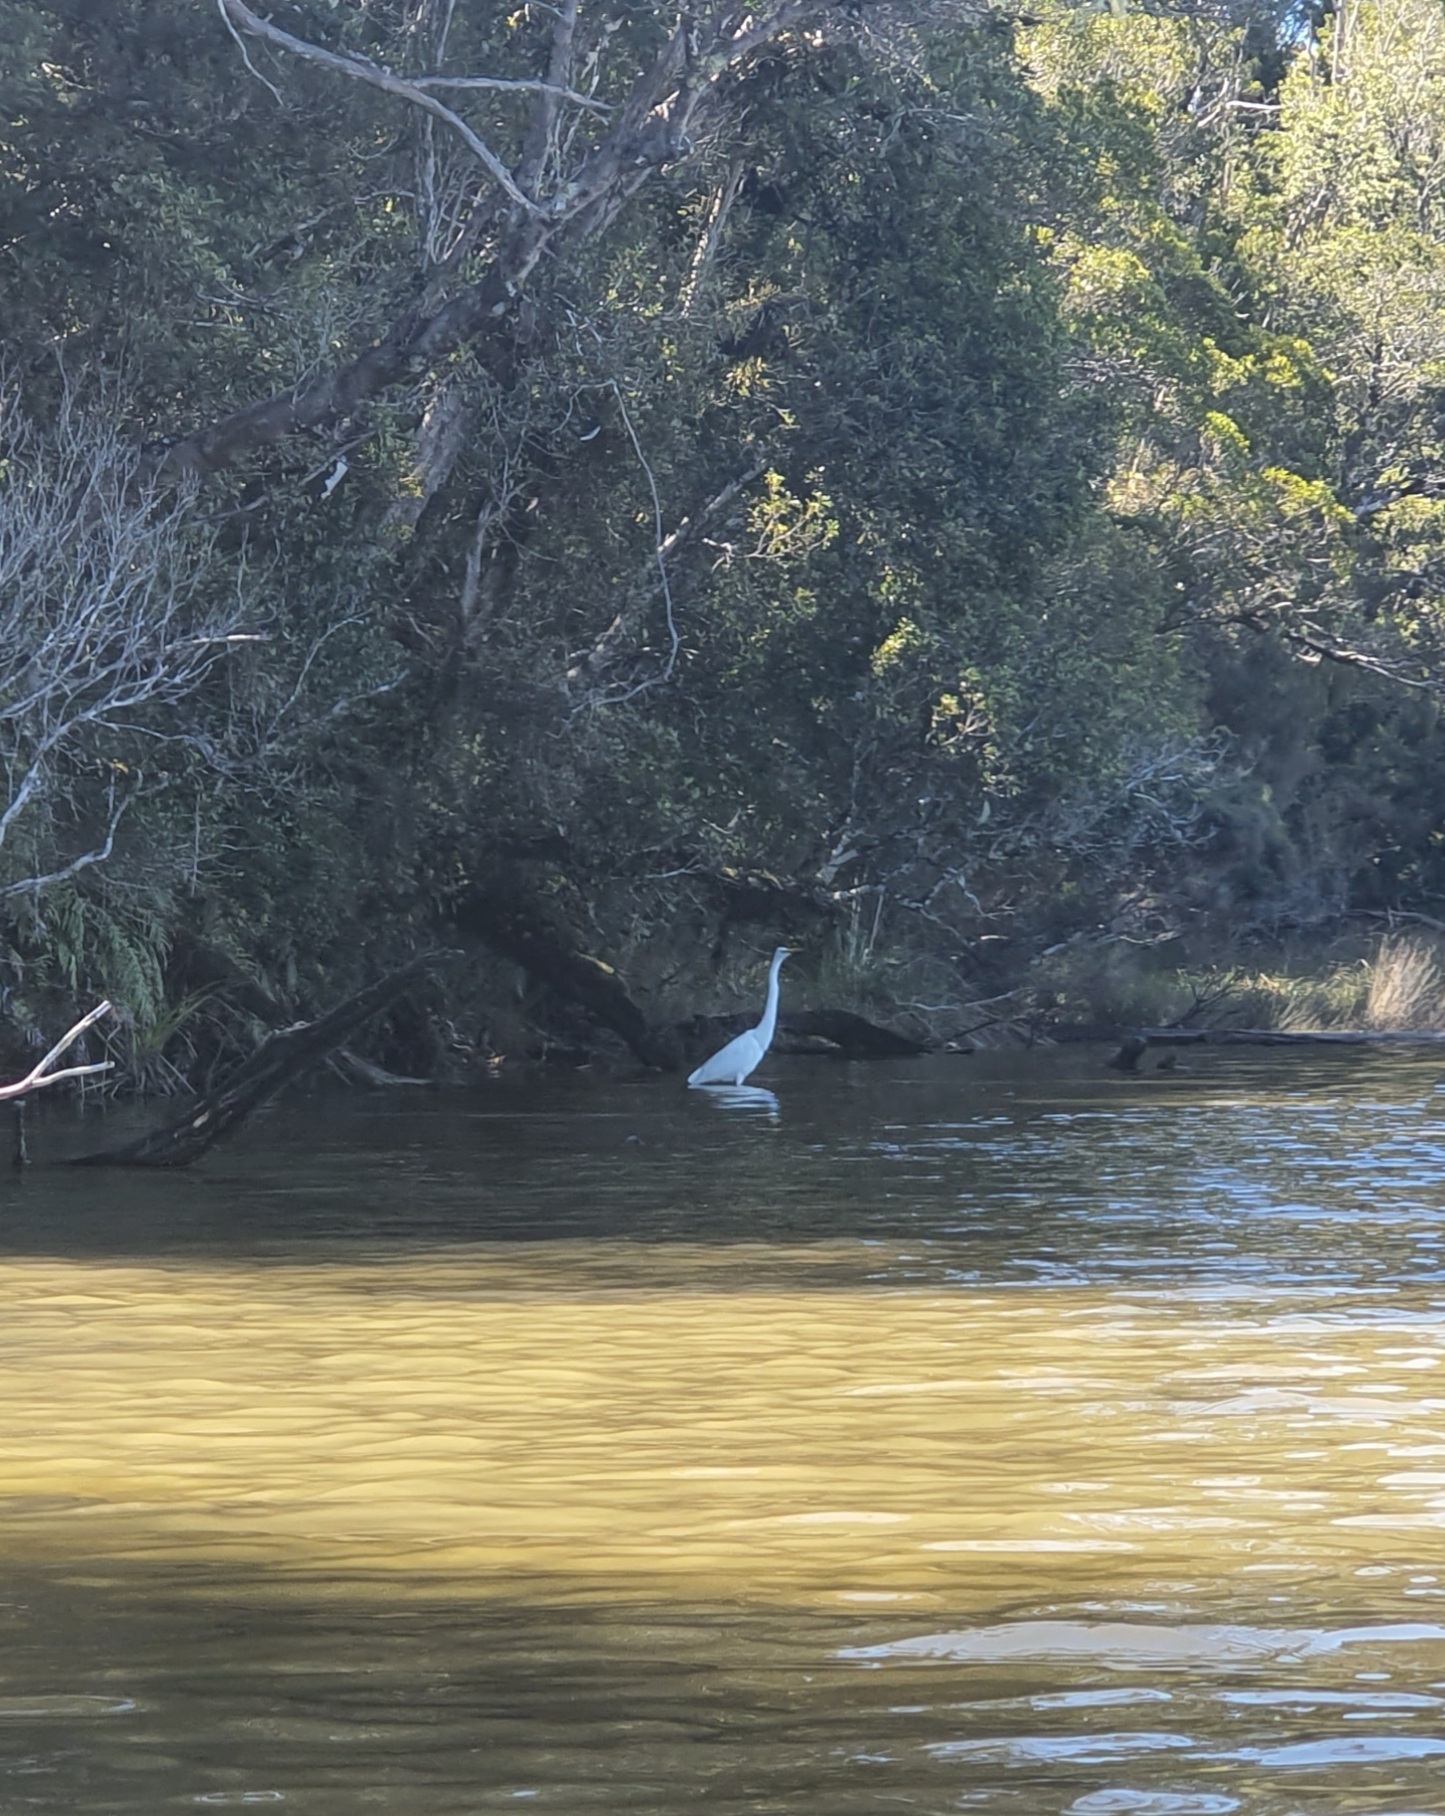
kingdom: Animalia
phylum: Chordata
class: Aves
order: Pelecaniformes
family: Ardeidae
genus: Ardea
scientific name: Ardea modesta
